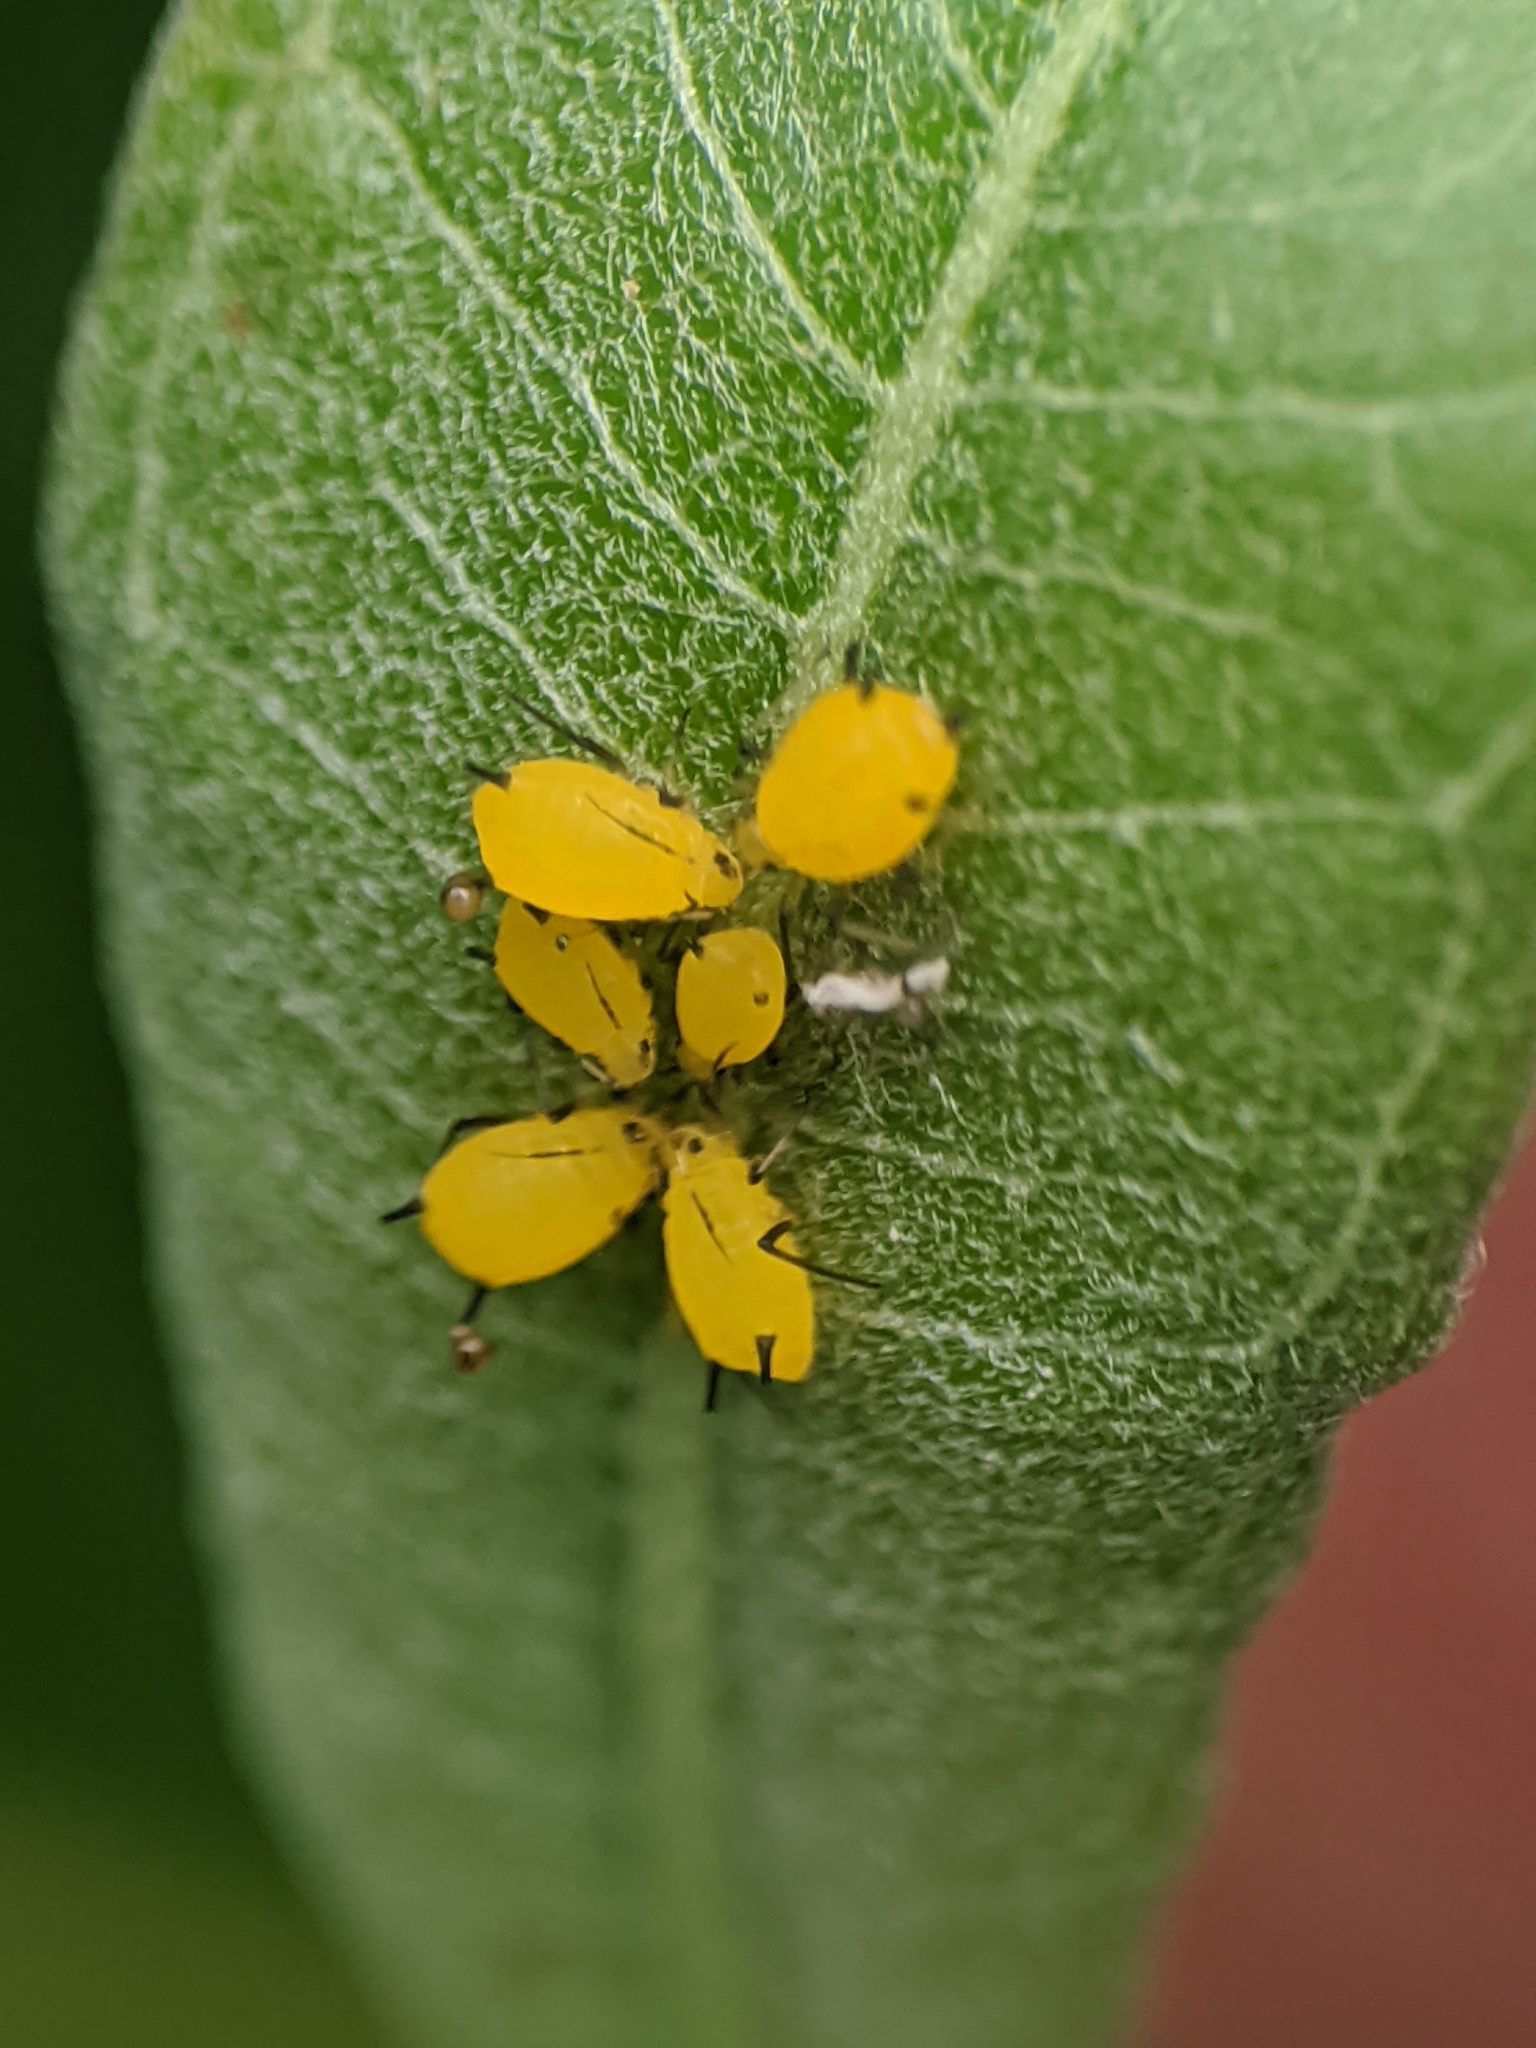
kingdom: Animalia
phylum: Arthropoda
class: Insecta
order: Hemiptera
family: Aphididae
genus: Aphis
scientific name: Aphis nerii
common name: Oleander aphid
